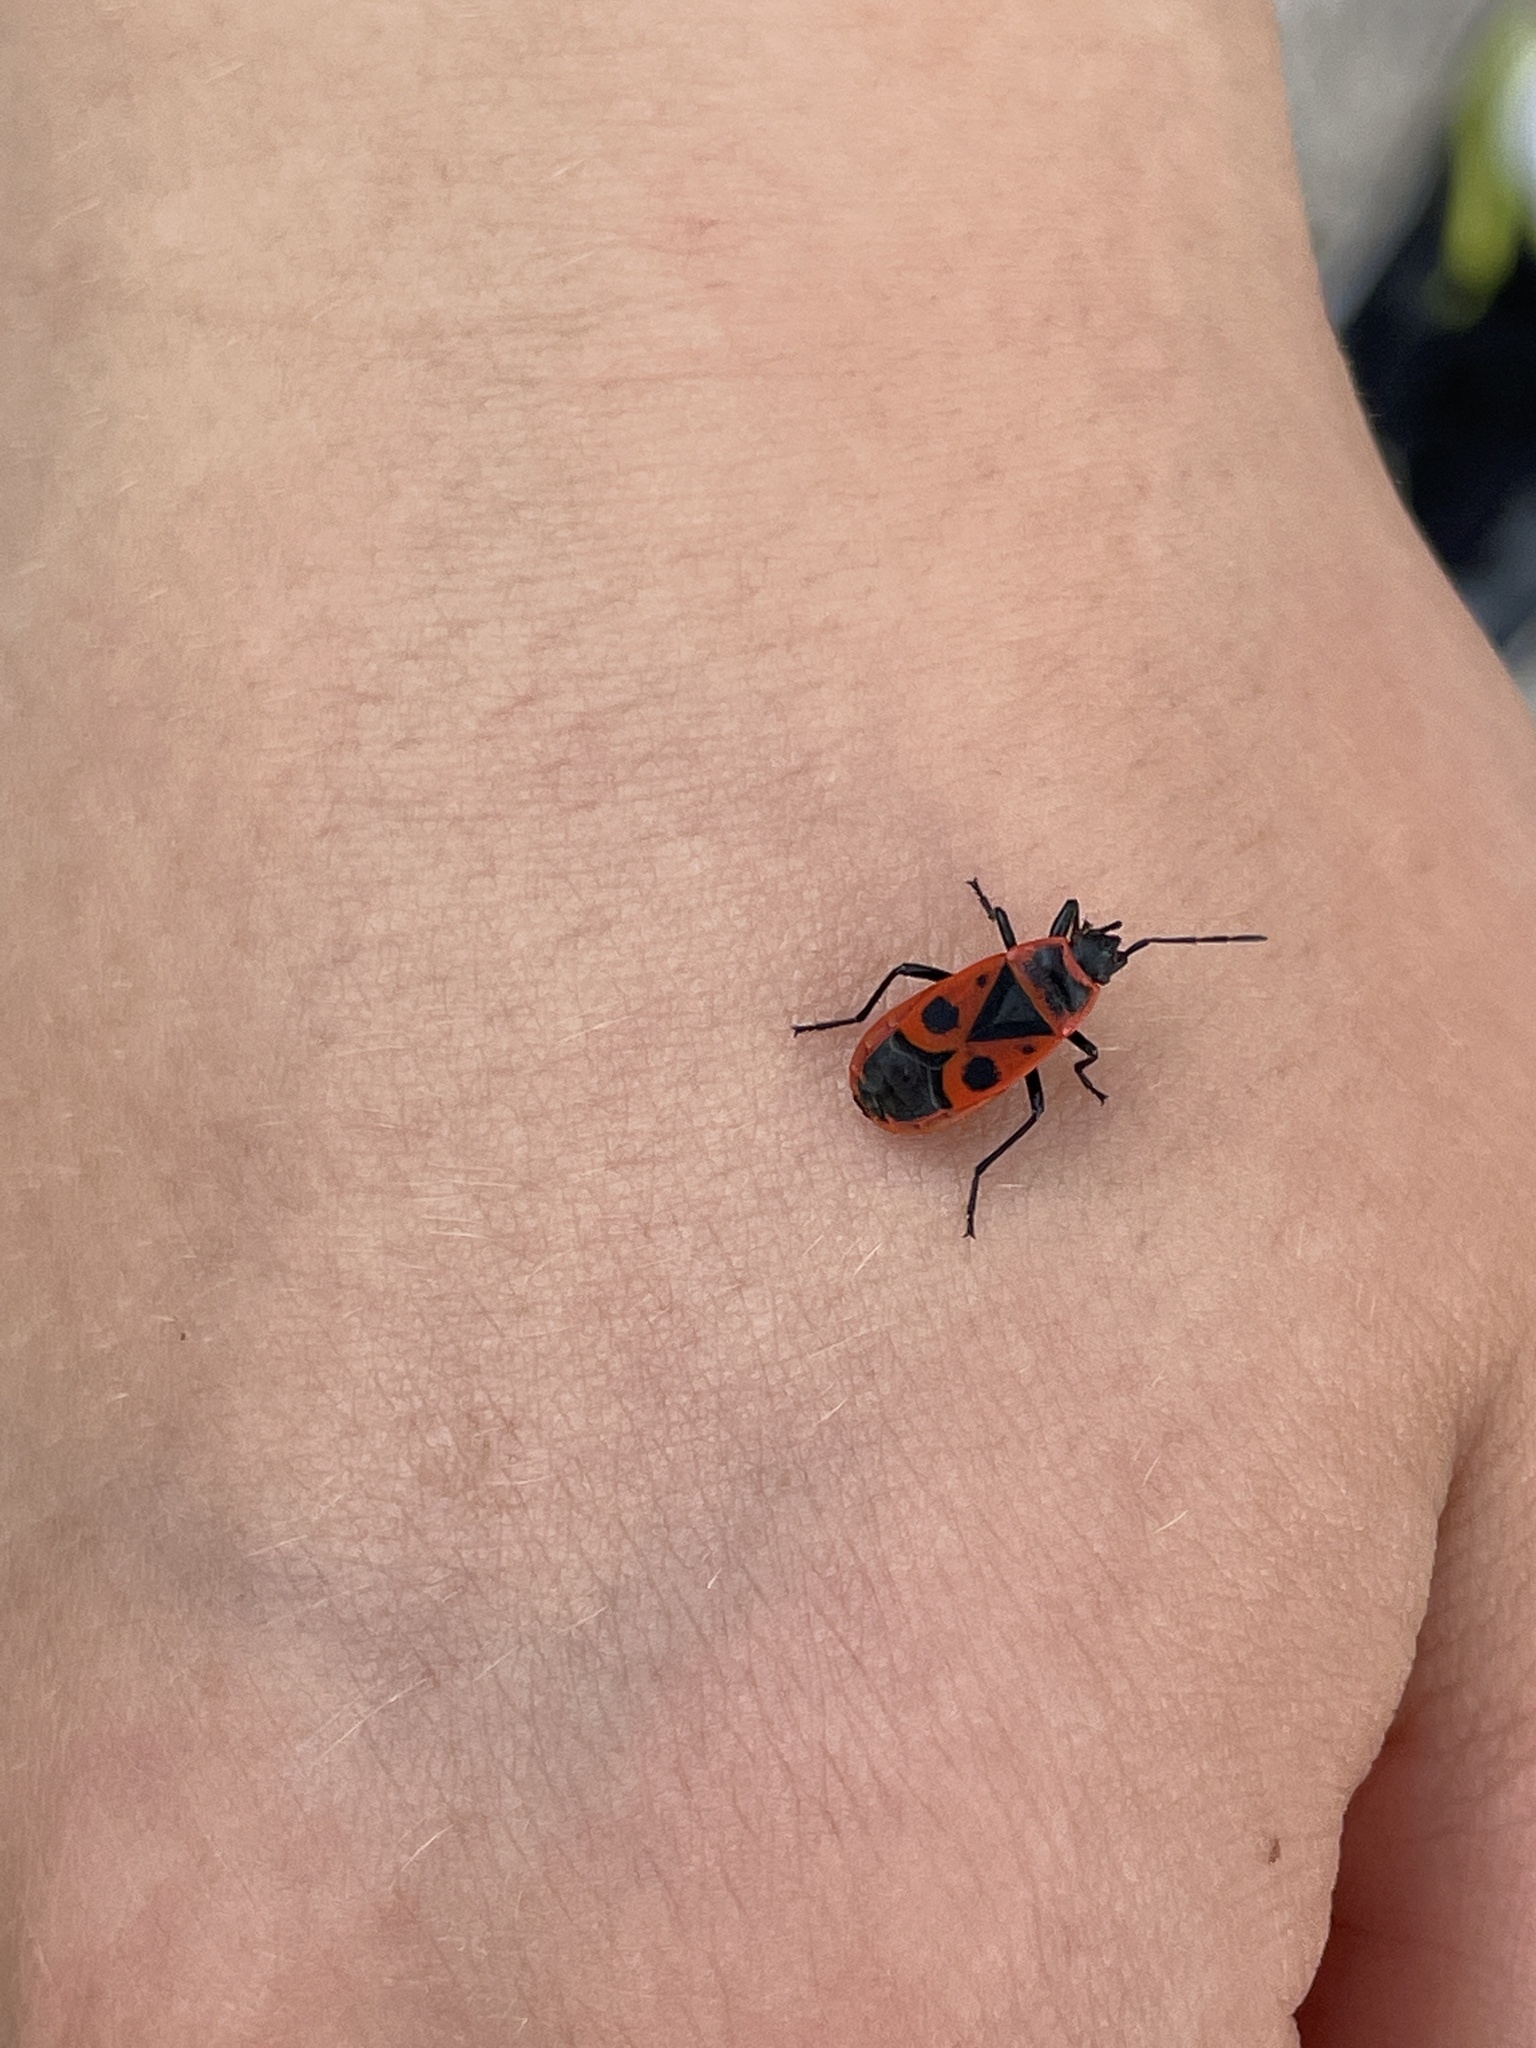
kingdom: Animalia
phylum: Arthropoda
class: Insecta
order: Hemiptera
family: Pyrrhocoridae
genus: Pyrrhocoris
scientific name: Pyrrhocoris apterus
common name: Firebug
